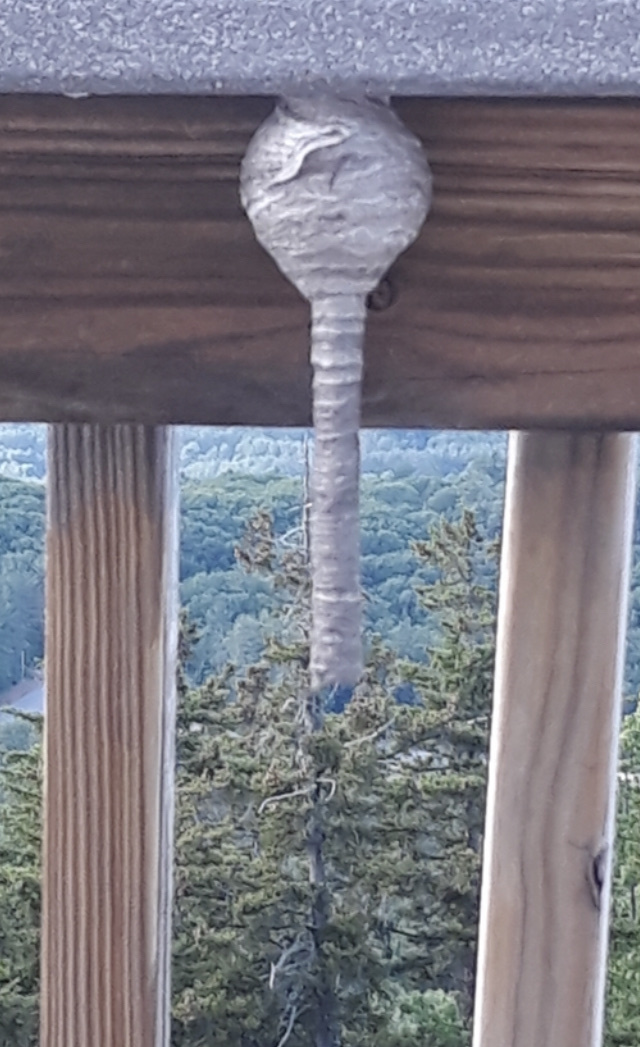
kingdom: Animalia
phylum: Arthropoda
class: Insecta
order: Hymenoptera
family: Vespidae
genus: Dolichovespula
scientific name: Dolichovespula maculata
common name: Bald-faced hornet
